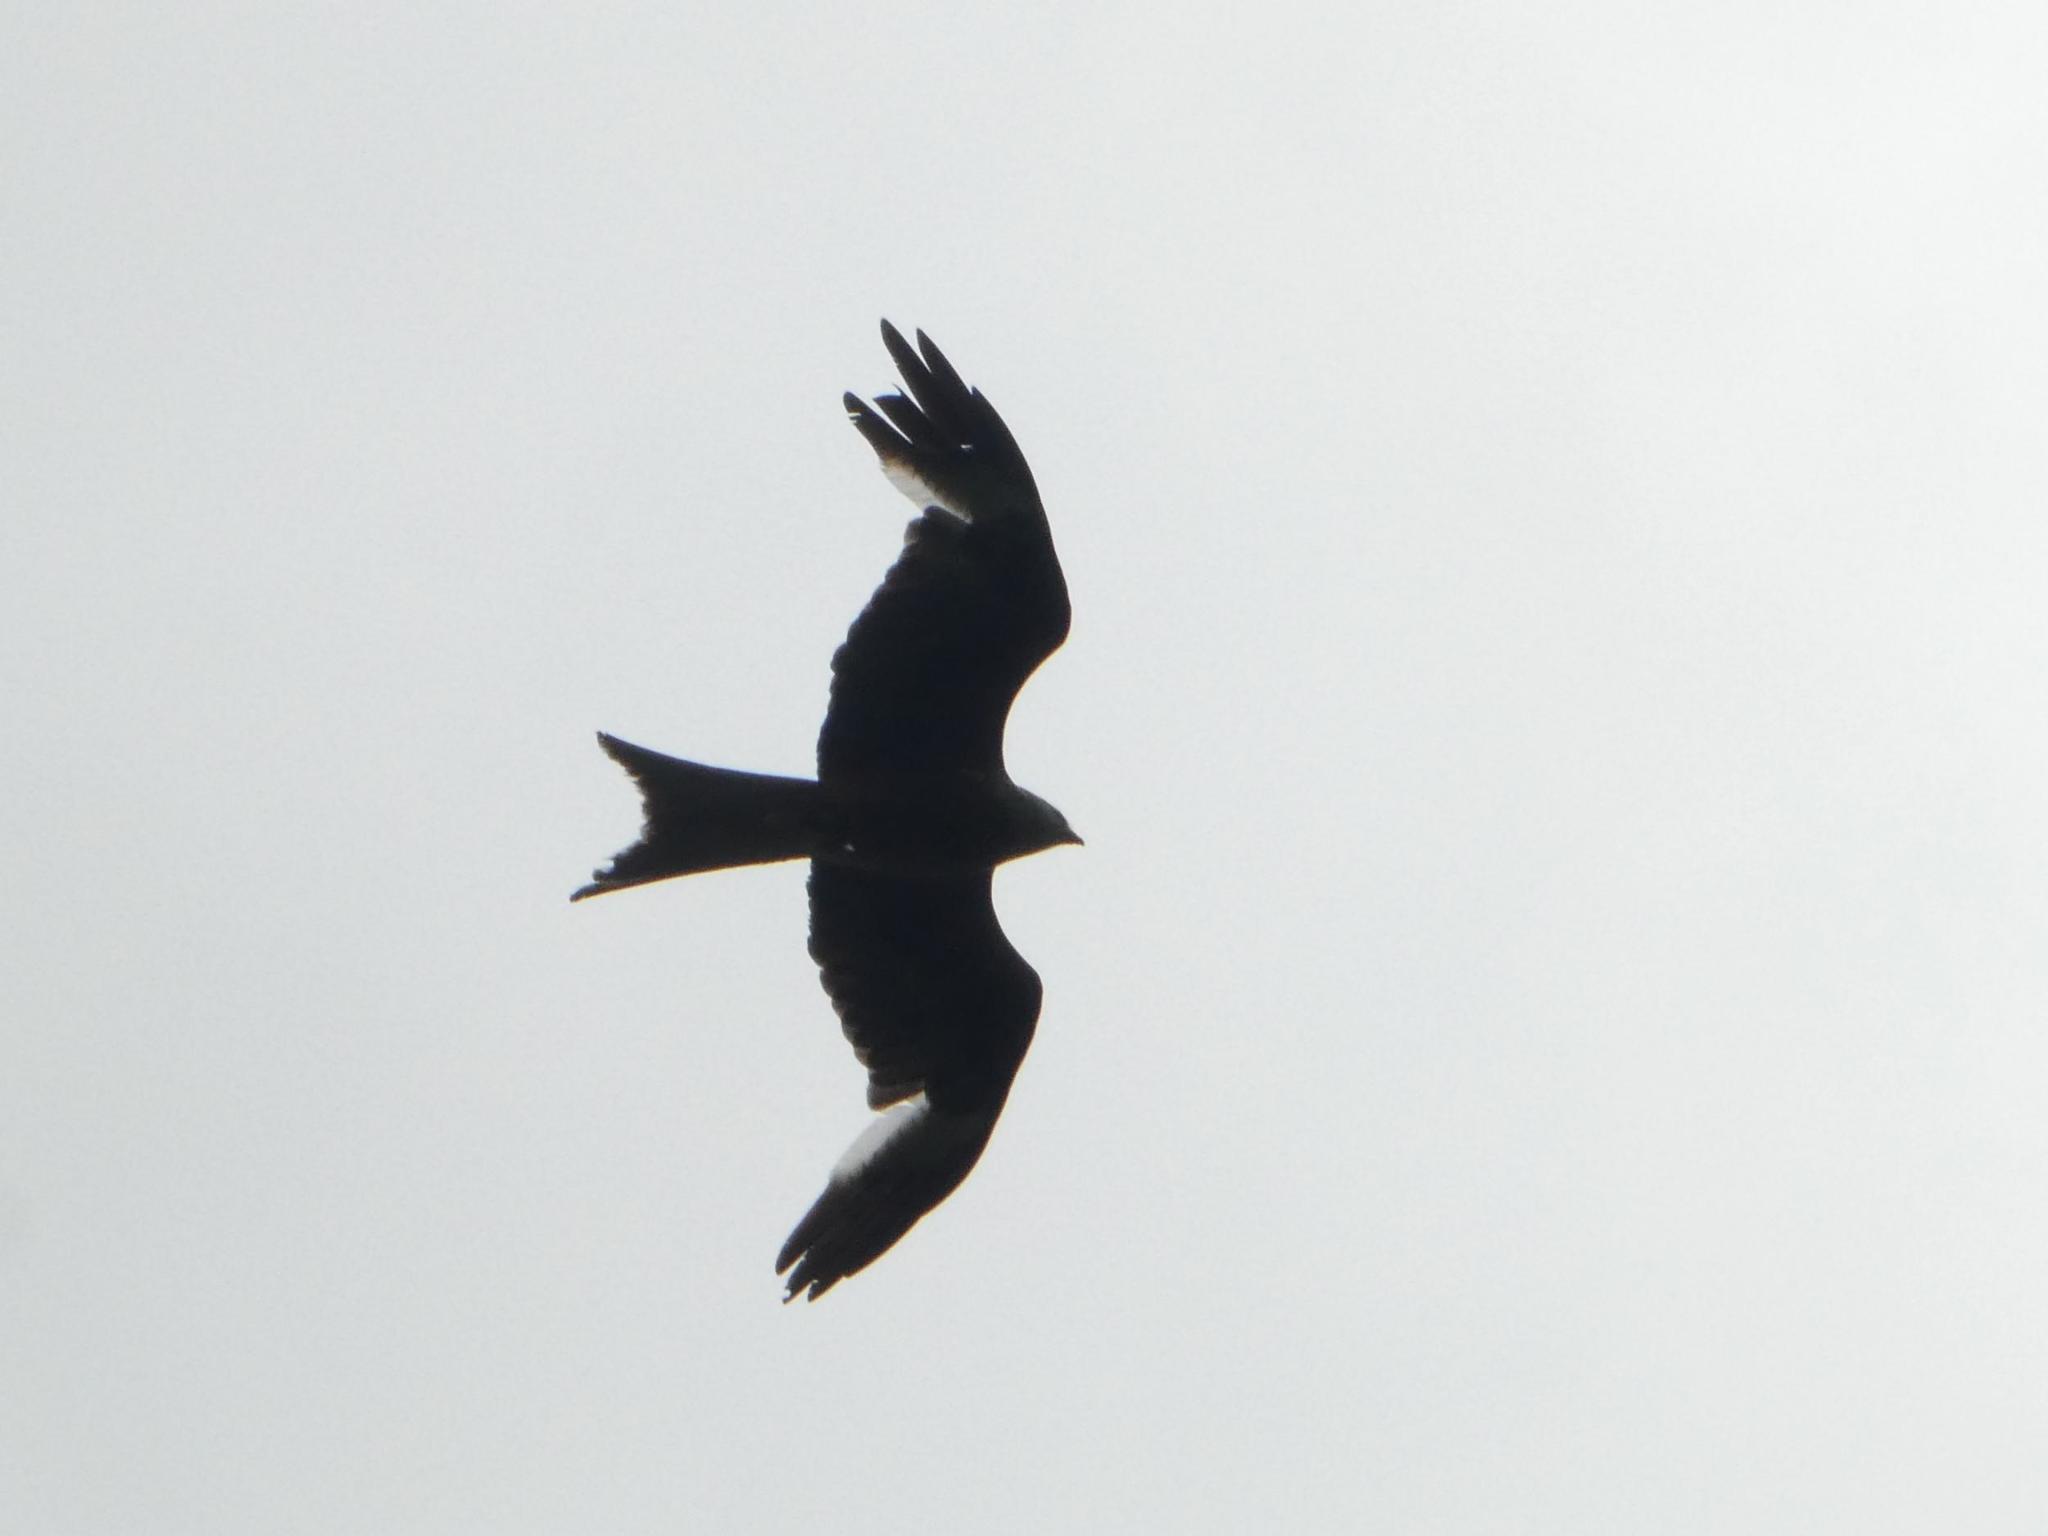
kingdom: Animalia
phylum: Chordata
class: Aves
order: Accipitriformes
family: Accipitridae
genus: Milvus
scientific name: Milvus milvus
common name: Red kite
